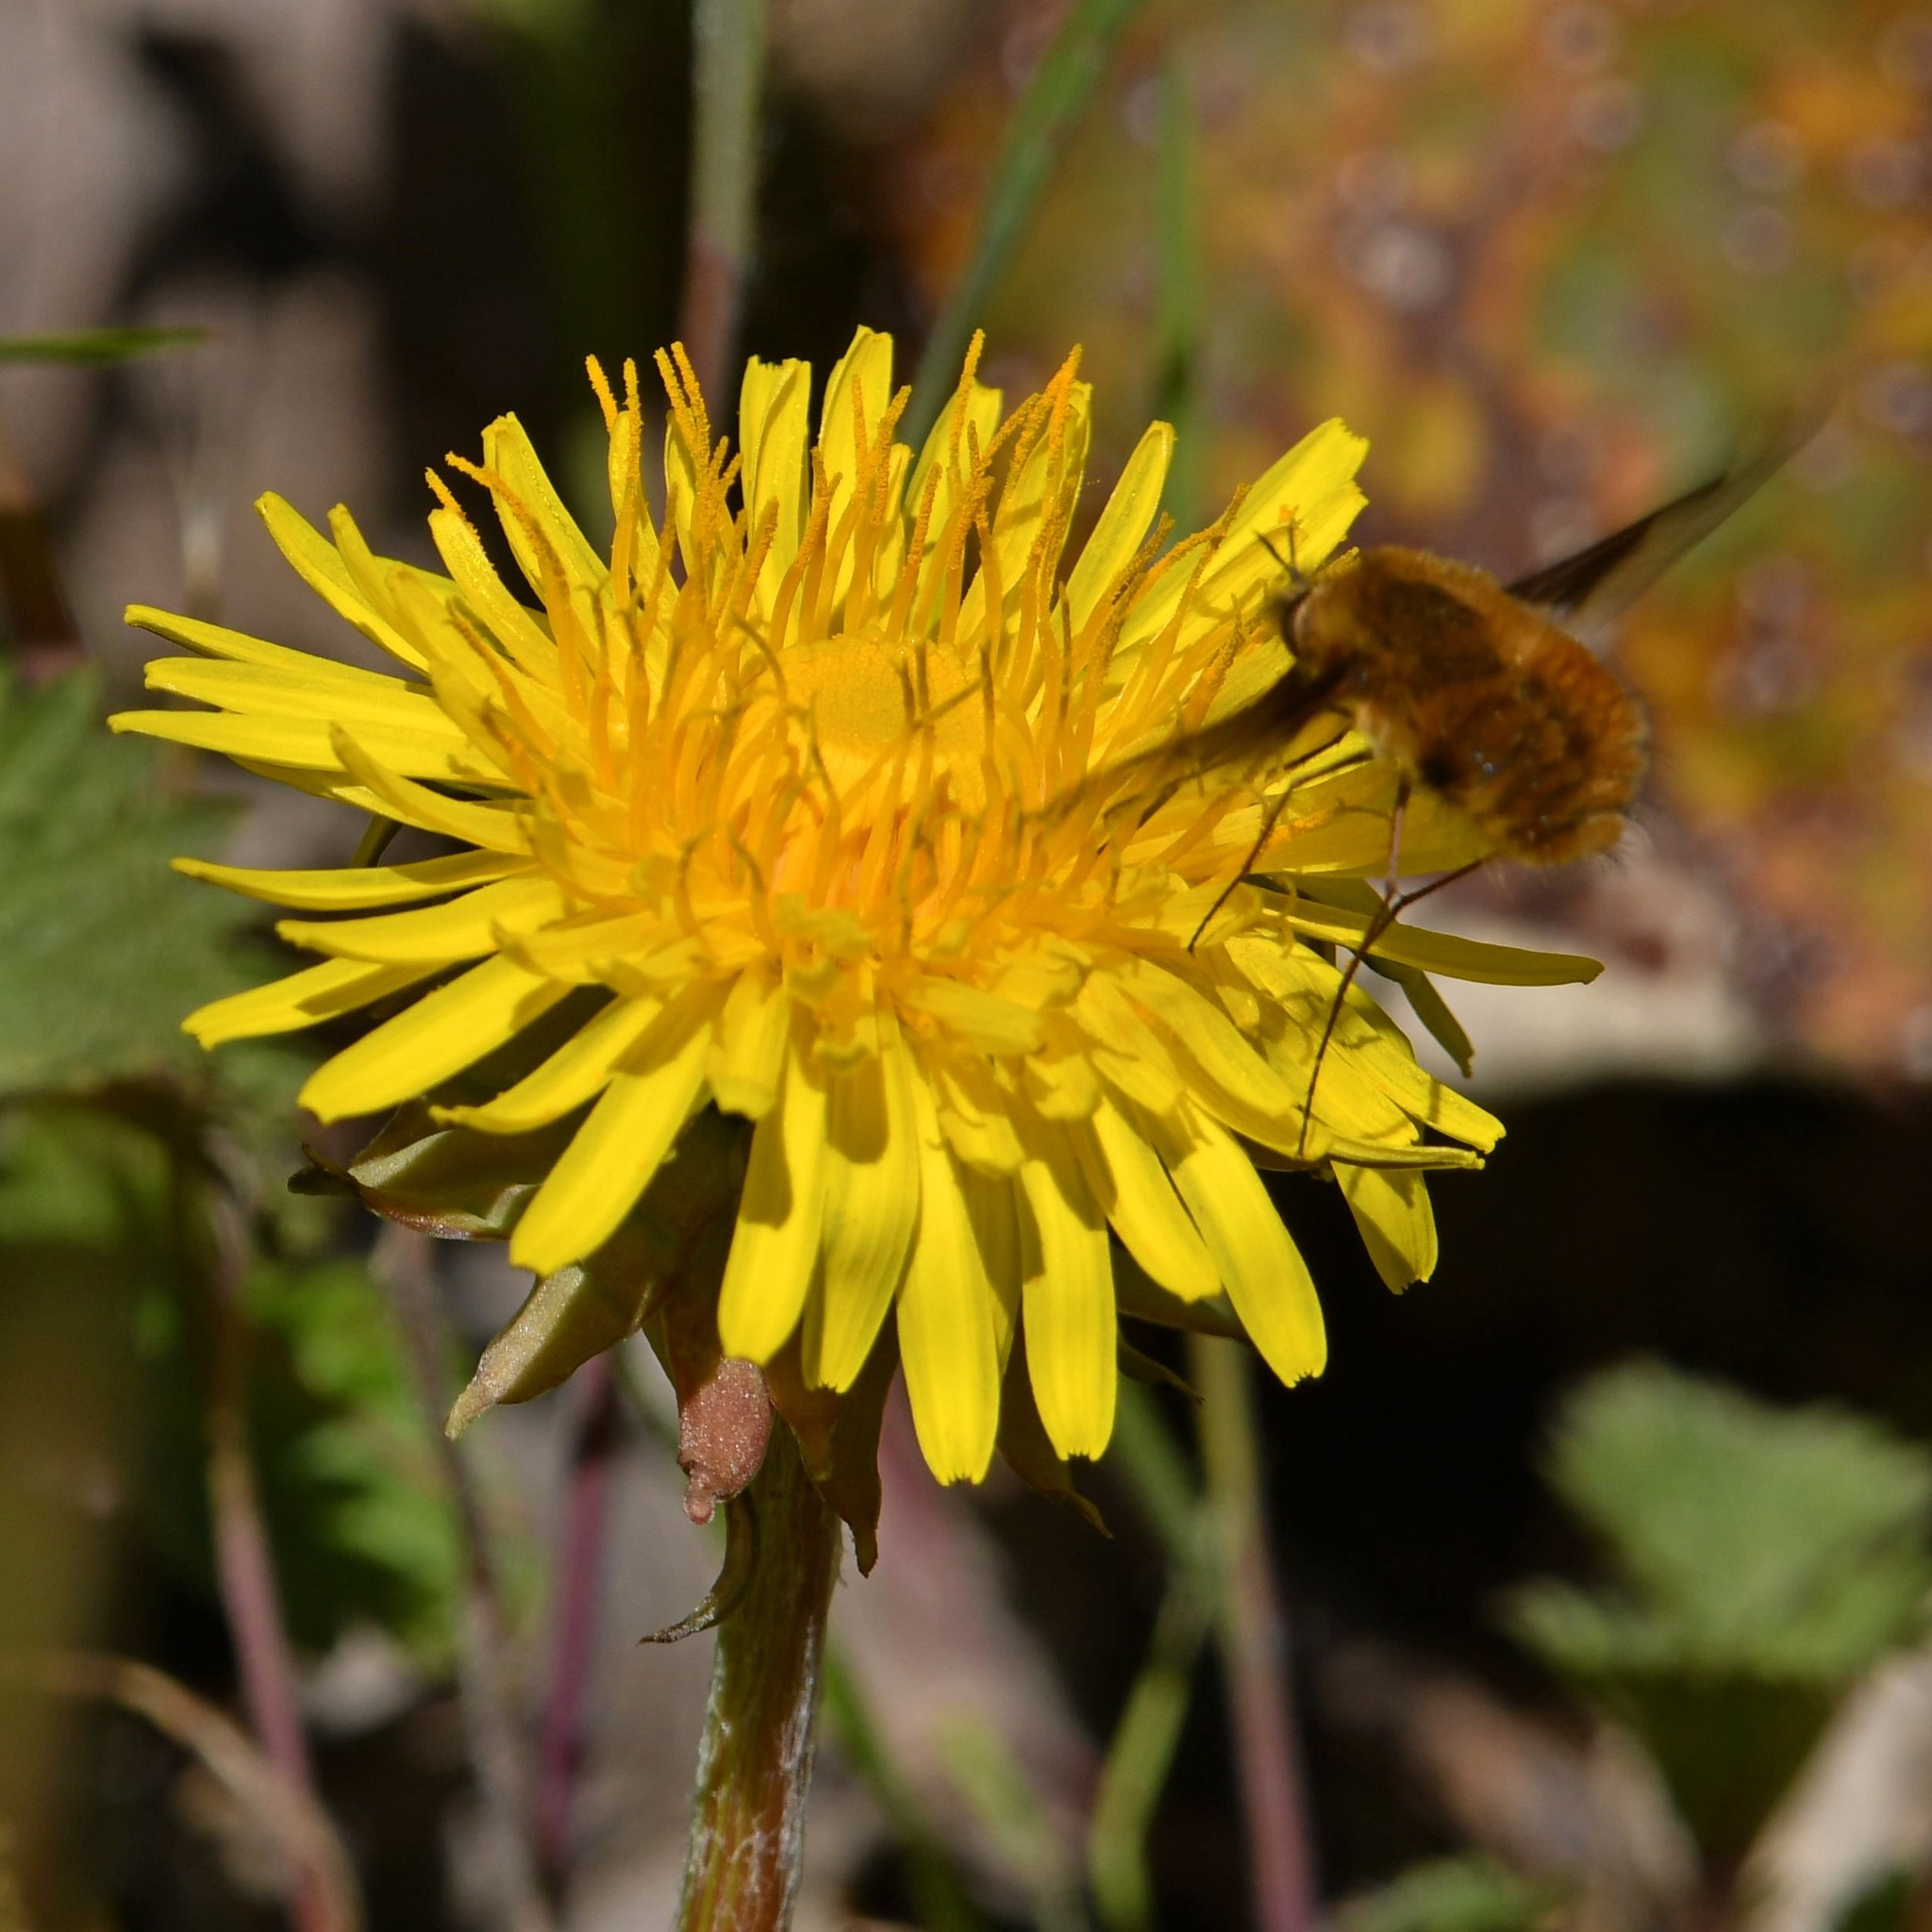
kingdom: Animalia
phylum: Arthropoda
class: Insecta
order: Diptera
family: Bombyliidae
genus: Bombylius
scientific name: Bombylius major
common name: Bee fly
